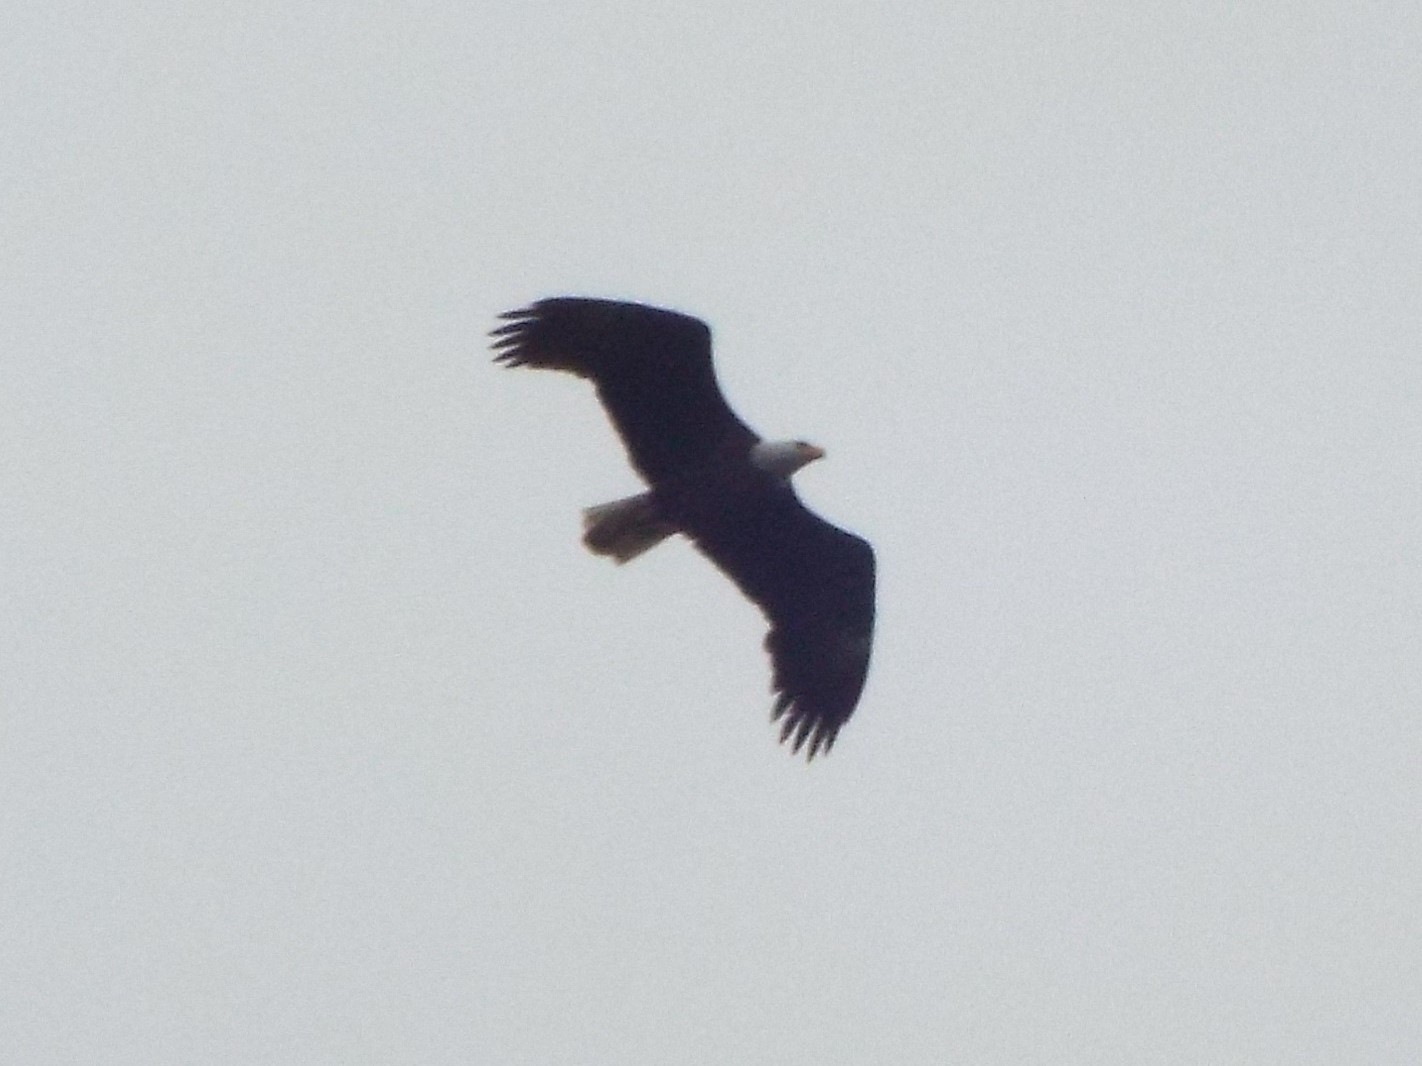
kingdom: Animalia
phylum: Chordata
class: Aves
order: Accipitriformes
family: Accipitridae
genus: Haliaeetus
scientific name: Haliaeetus leucocephalus
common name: Bald eagle
